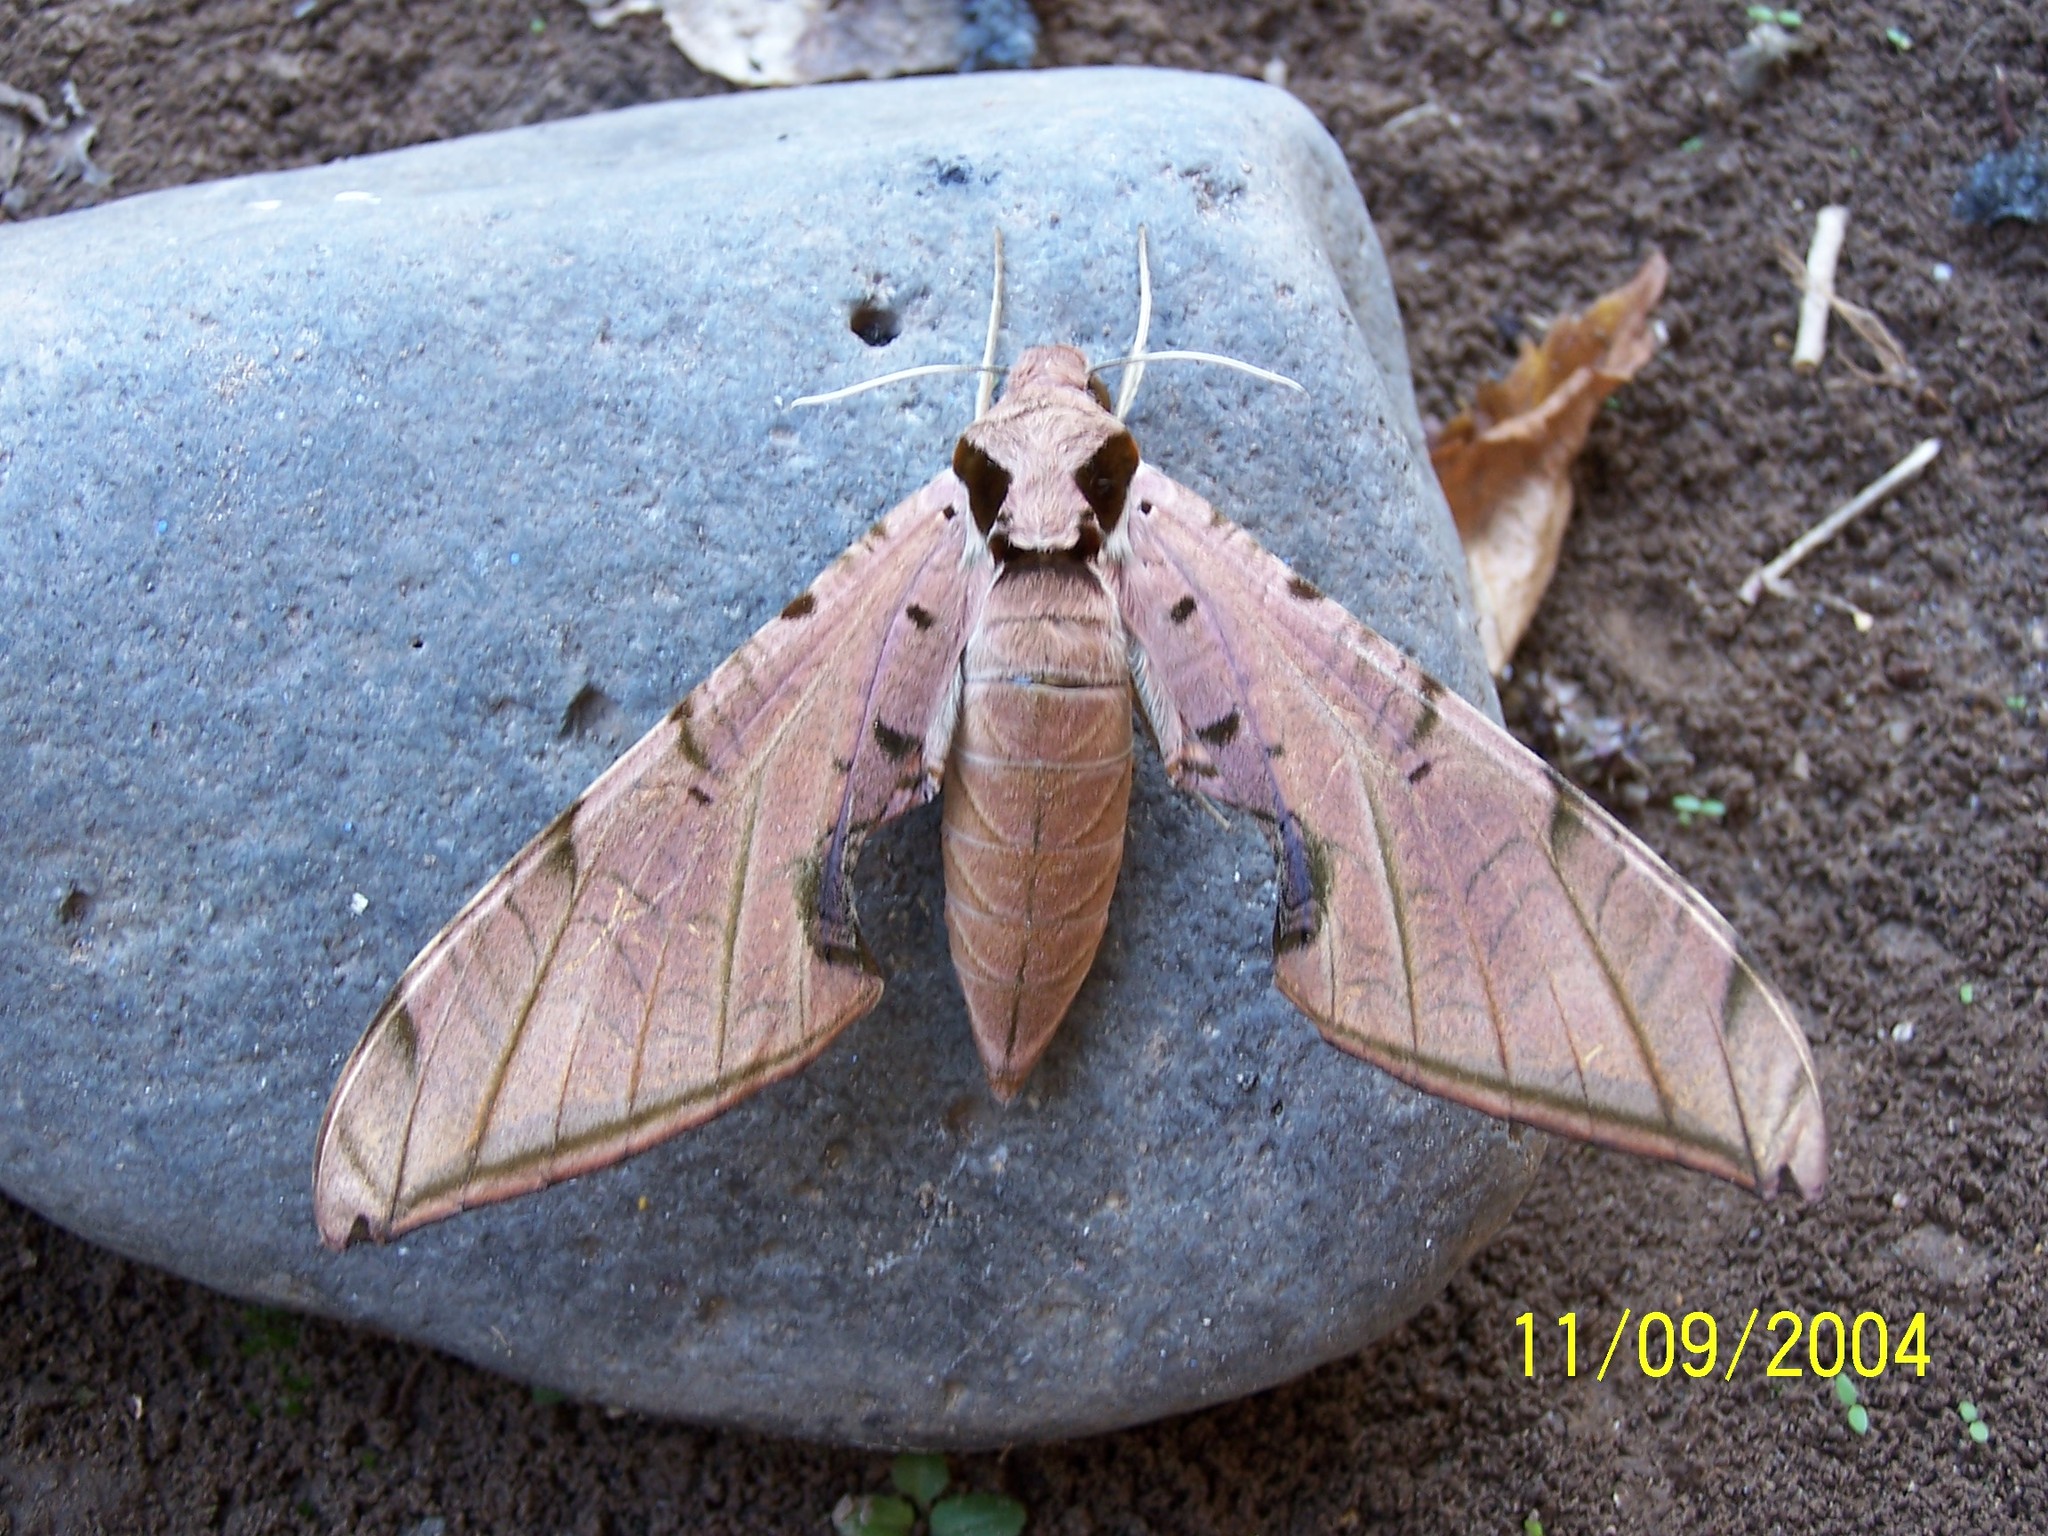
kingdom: Animalia
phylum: Arthropoda
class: Insecta
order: Lepidoptera
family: Sphingidae
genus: Protambulyx
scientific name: Protambulyx strigilis
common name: Streaked sphinx
